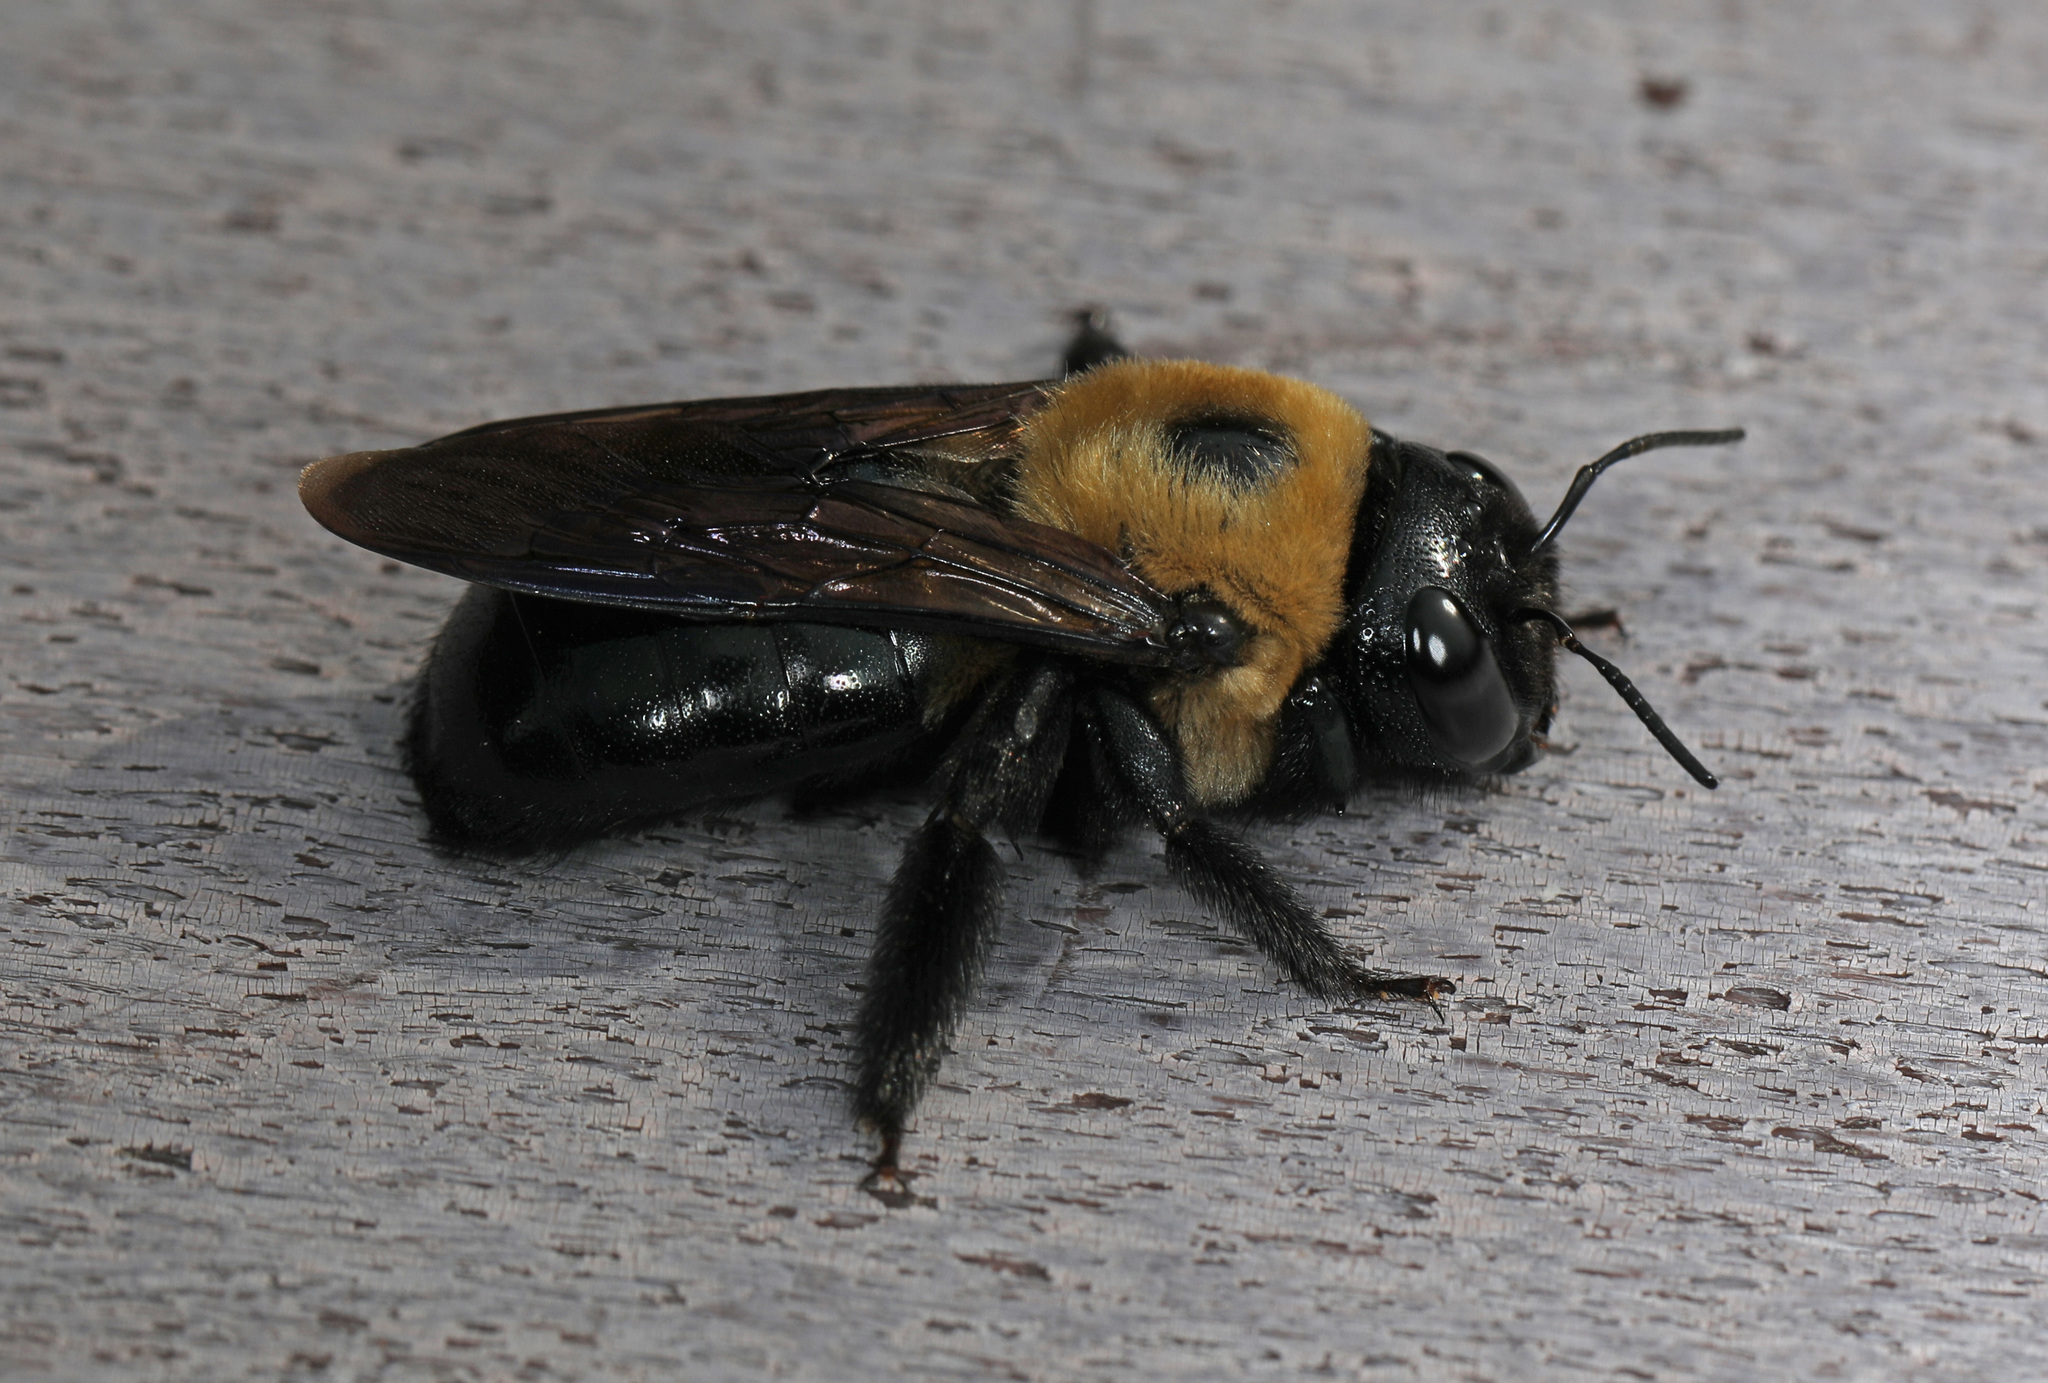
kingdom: Animalia
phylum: Arthropoda
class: Insecta
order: Hymenoptera
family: Apidae
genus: Xylocopa
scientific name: Xylocopa virginica
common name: Carpenter bee
